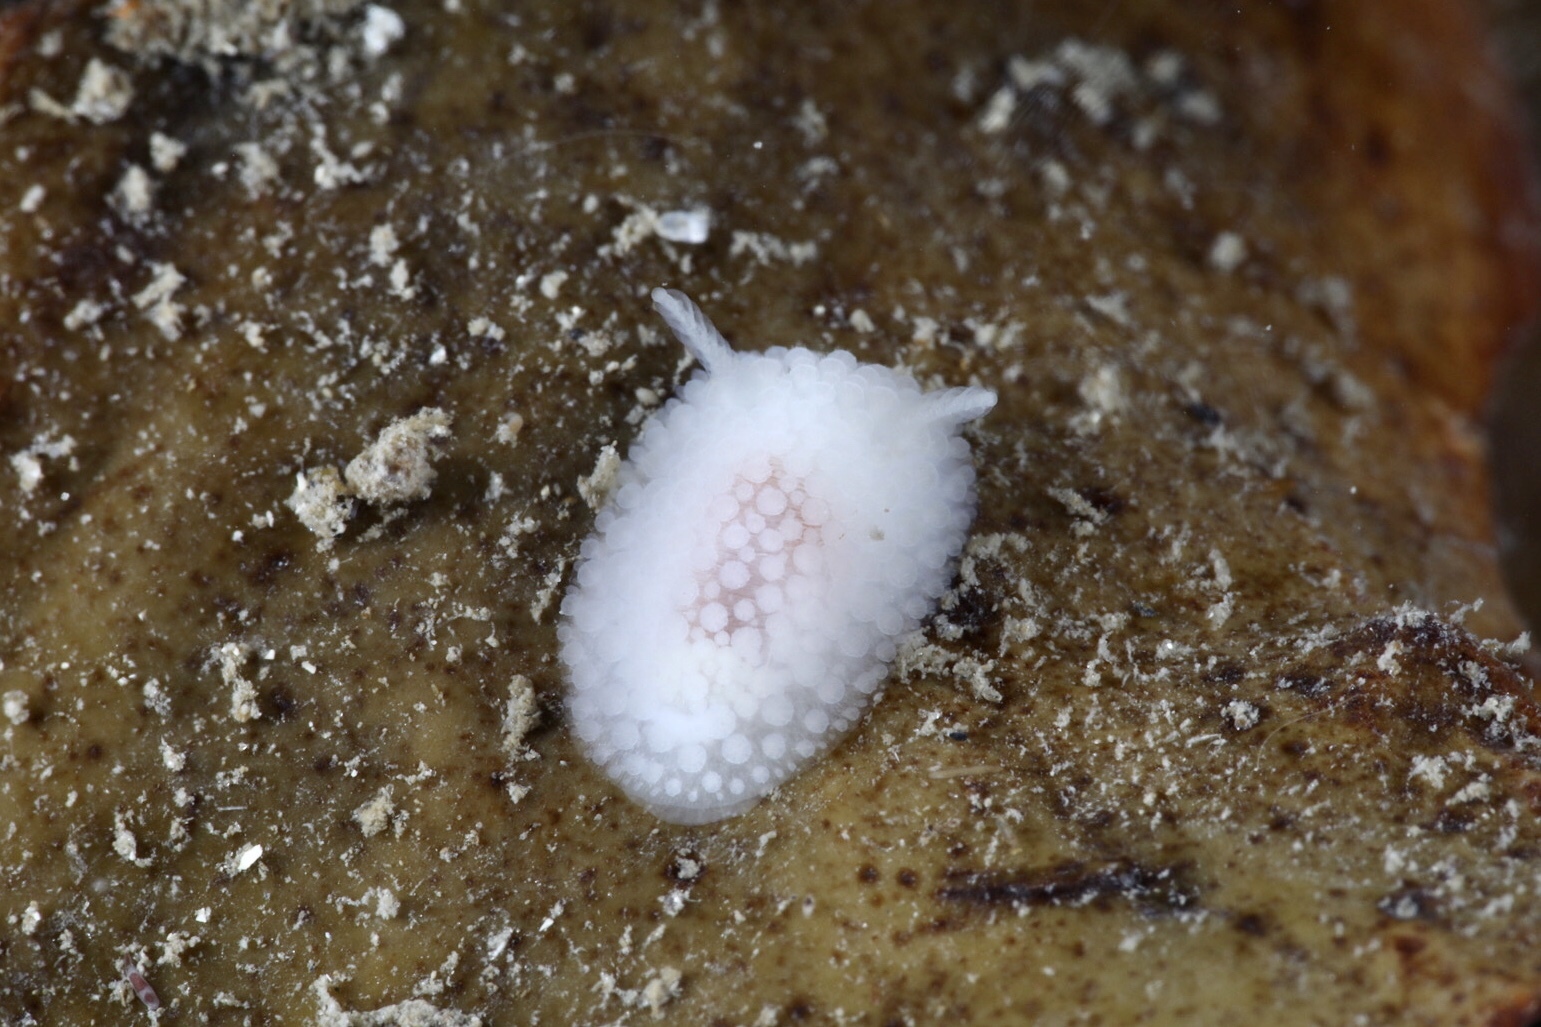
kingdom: Animalia
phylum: Mollusca
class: Gastropoda
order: Nudibranchia
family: Onchidorididae
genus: Onchidoris
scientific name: Onchidoris muricata
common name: Rough doris
